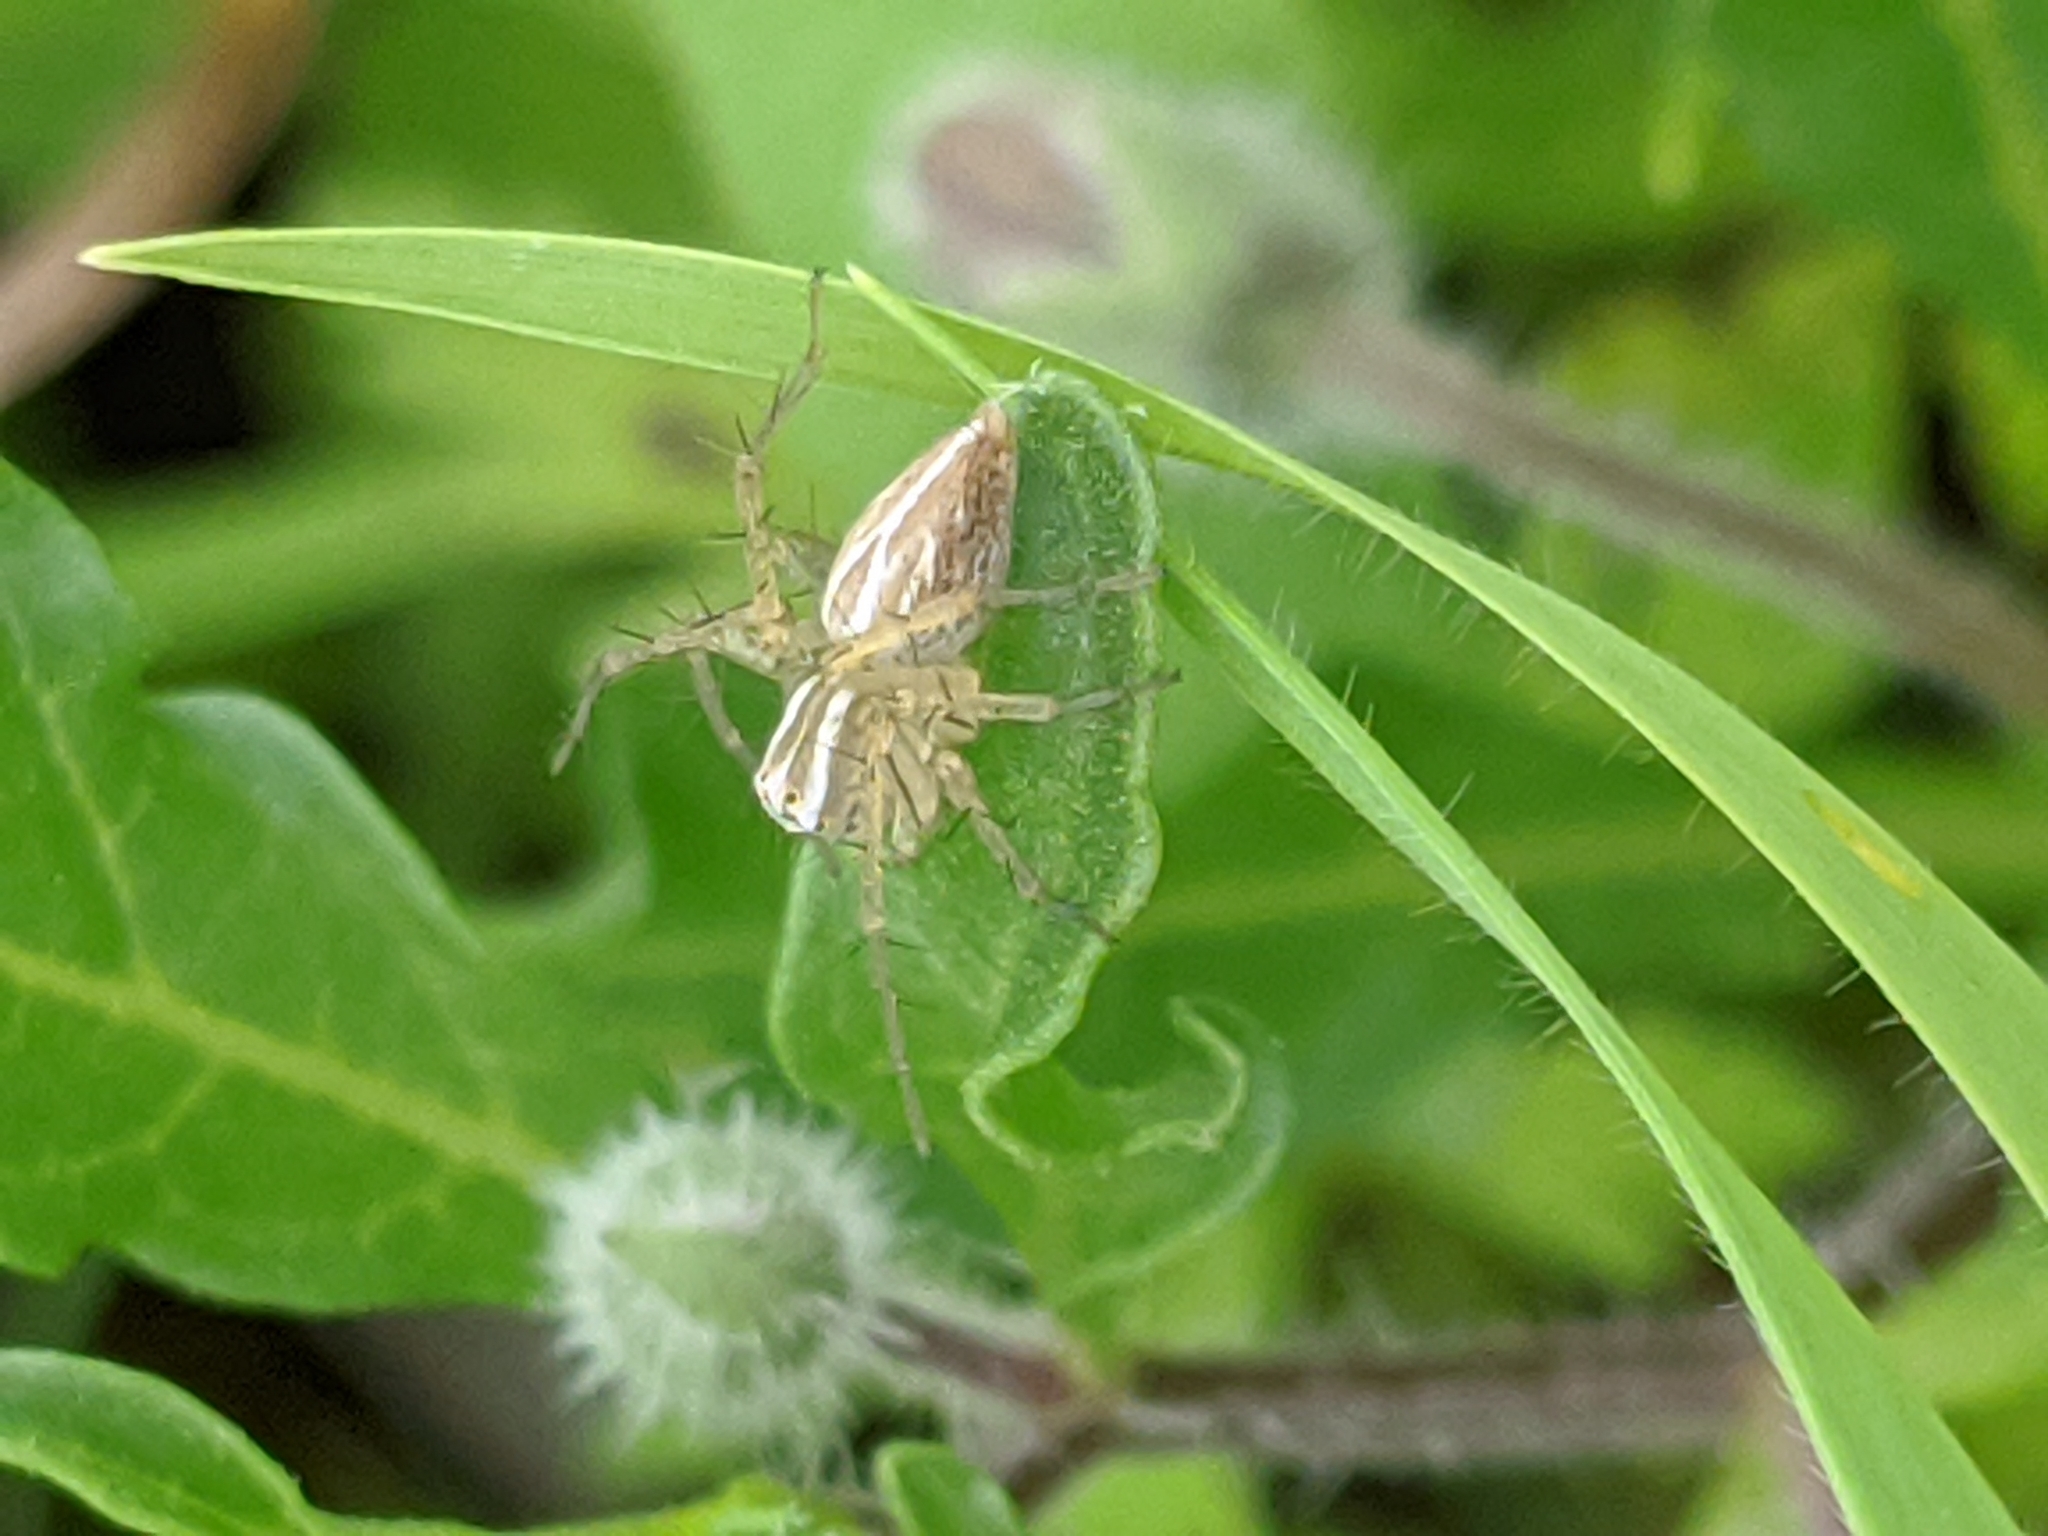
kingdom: Animalia
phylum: Arthropoda
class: Arachnida
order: Araneae
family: Oxyopidae
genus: Oxyopes
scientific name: Oxyopes salticus
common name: Lynx spiders
